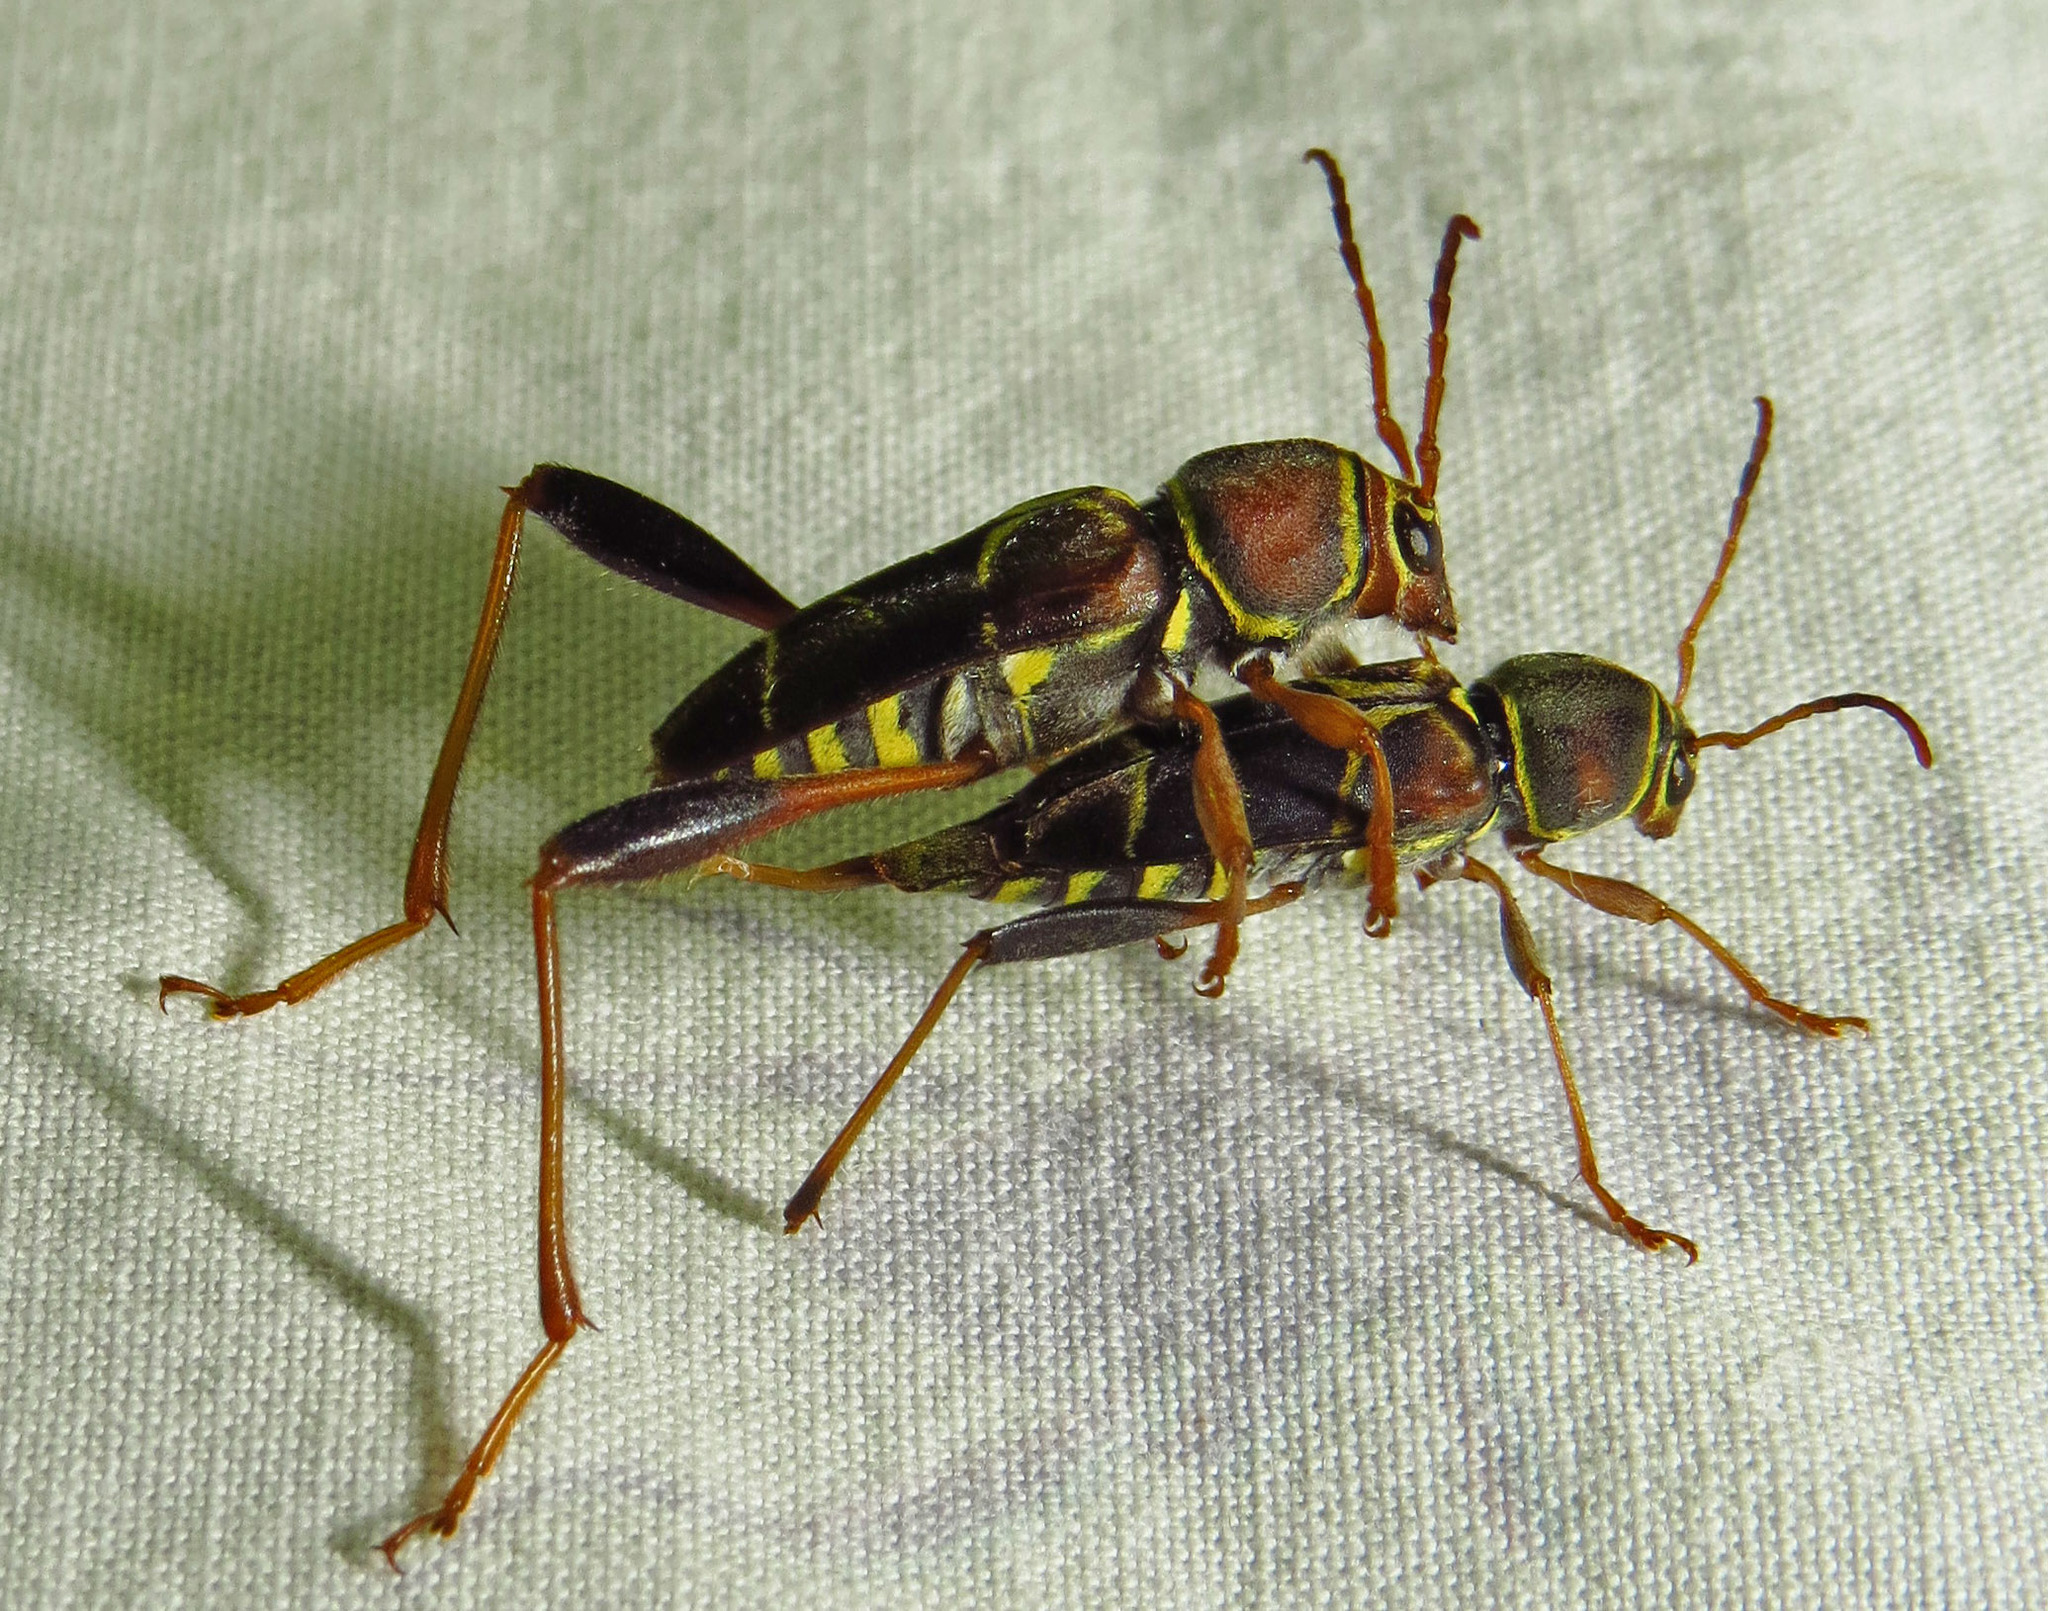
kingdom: Animalia
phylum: Arthropoda
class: Insecta
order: Coleoptera
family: Cerambycidae
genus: Neoclytus
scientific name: Neoclytus mucronatus
